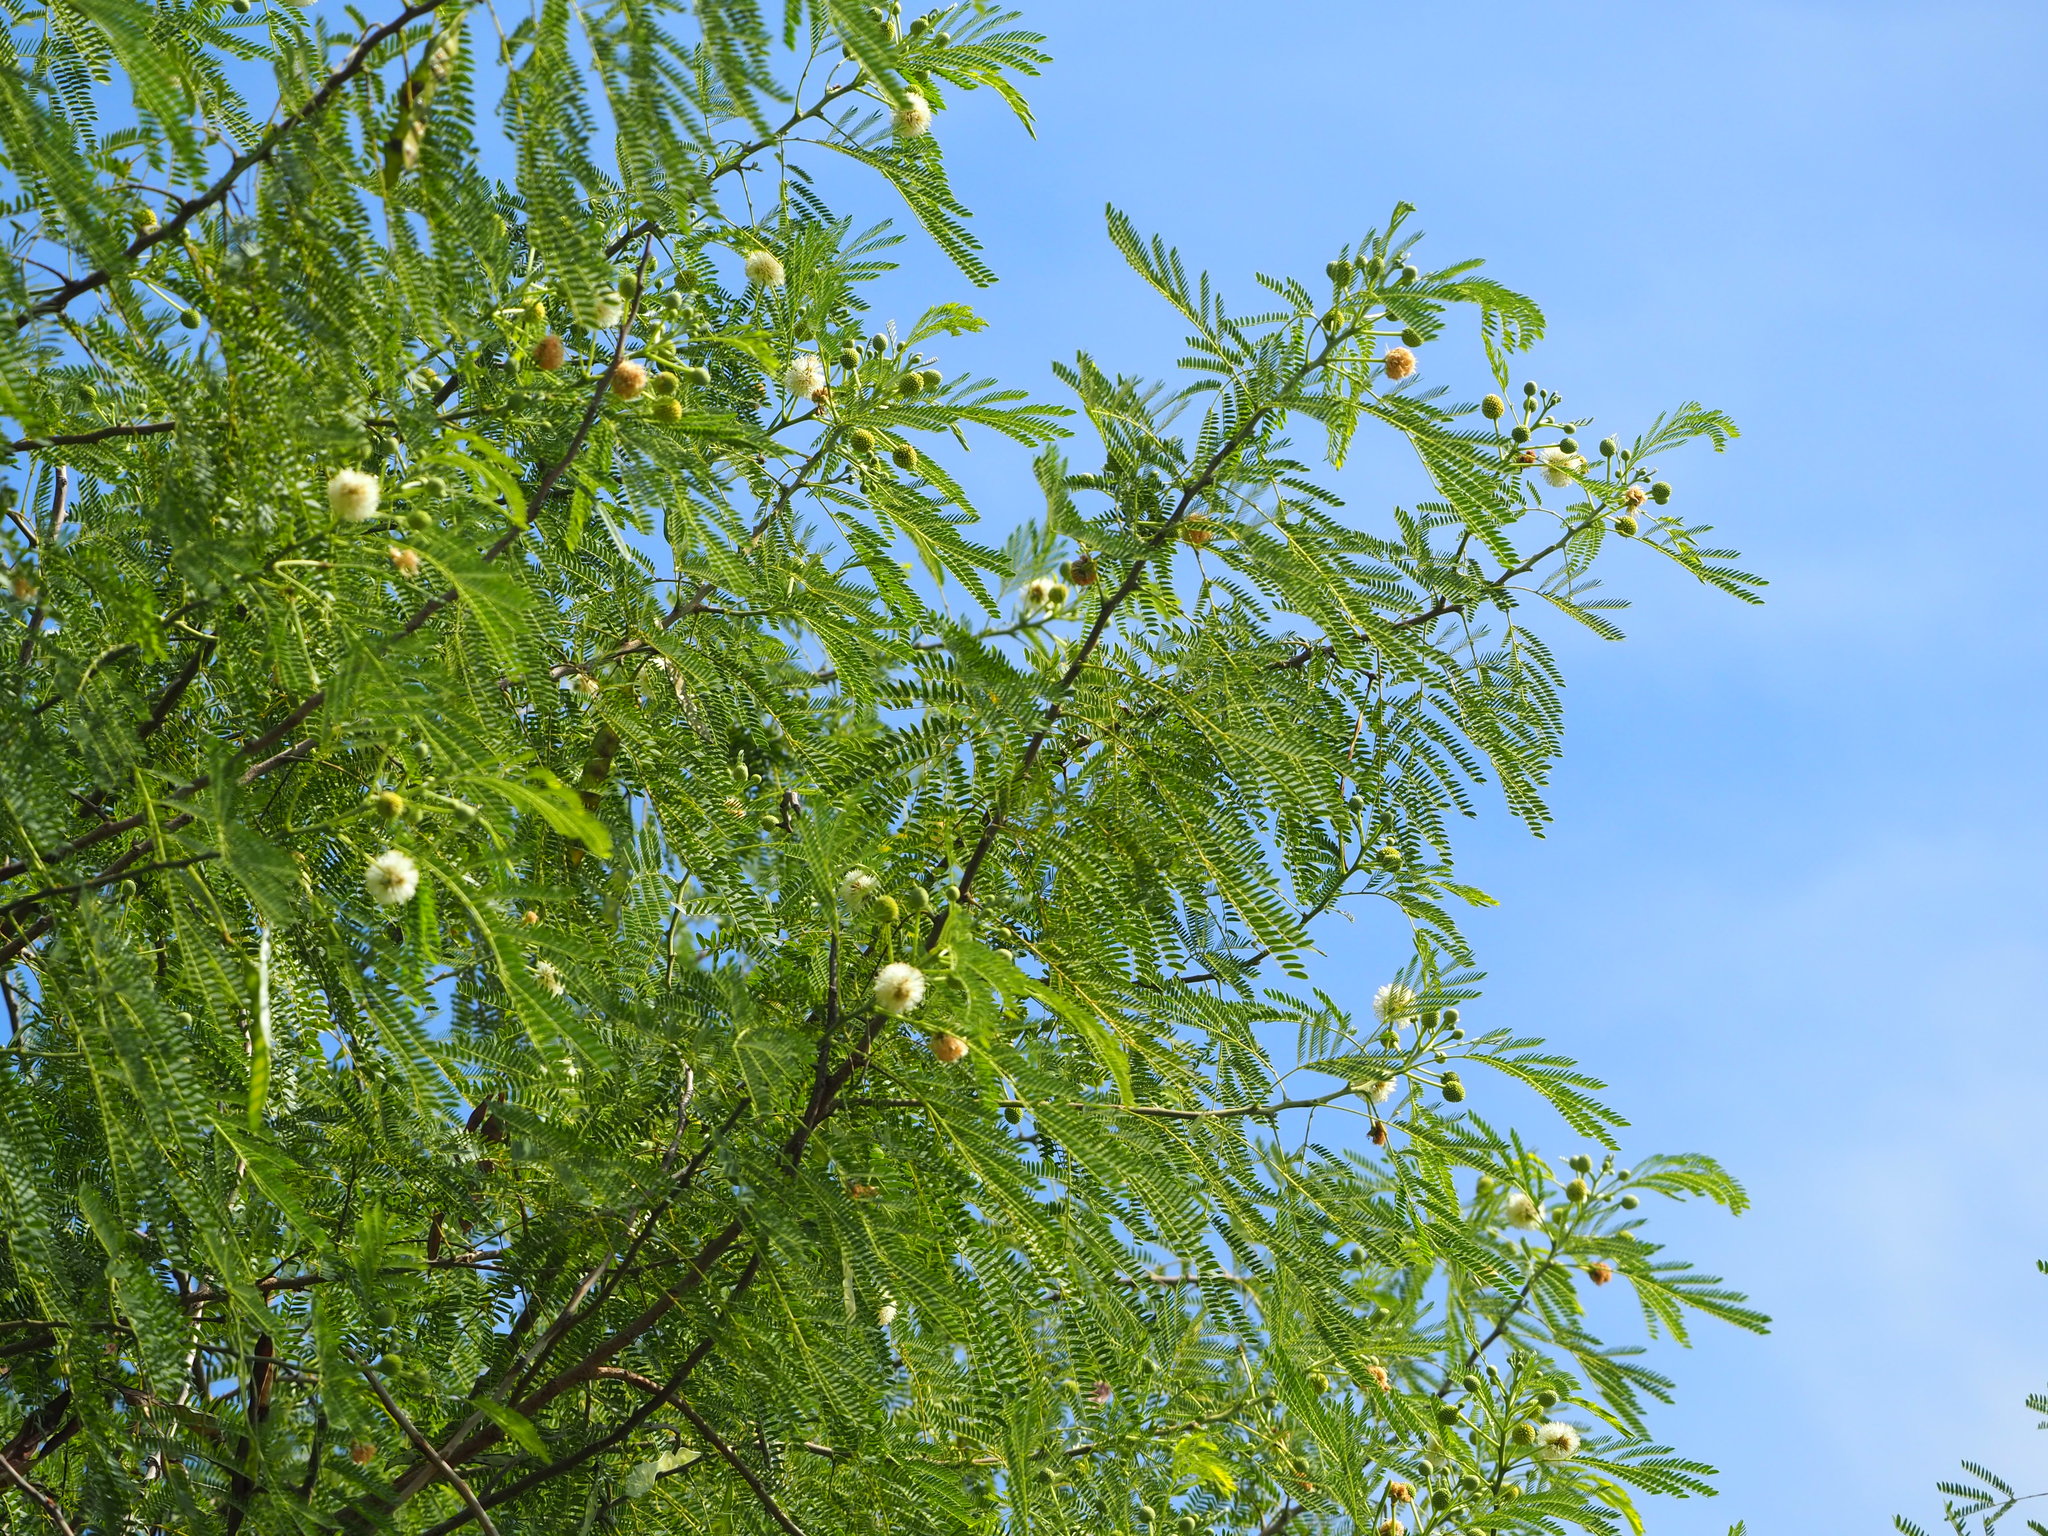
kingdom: Plantae
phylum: Tracheophyta
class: Magnoliopsida
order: Fabales
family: Fabaceae
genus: Leucaena
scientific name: Leucaena leucocephala
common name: White leadtree
